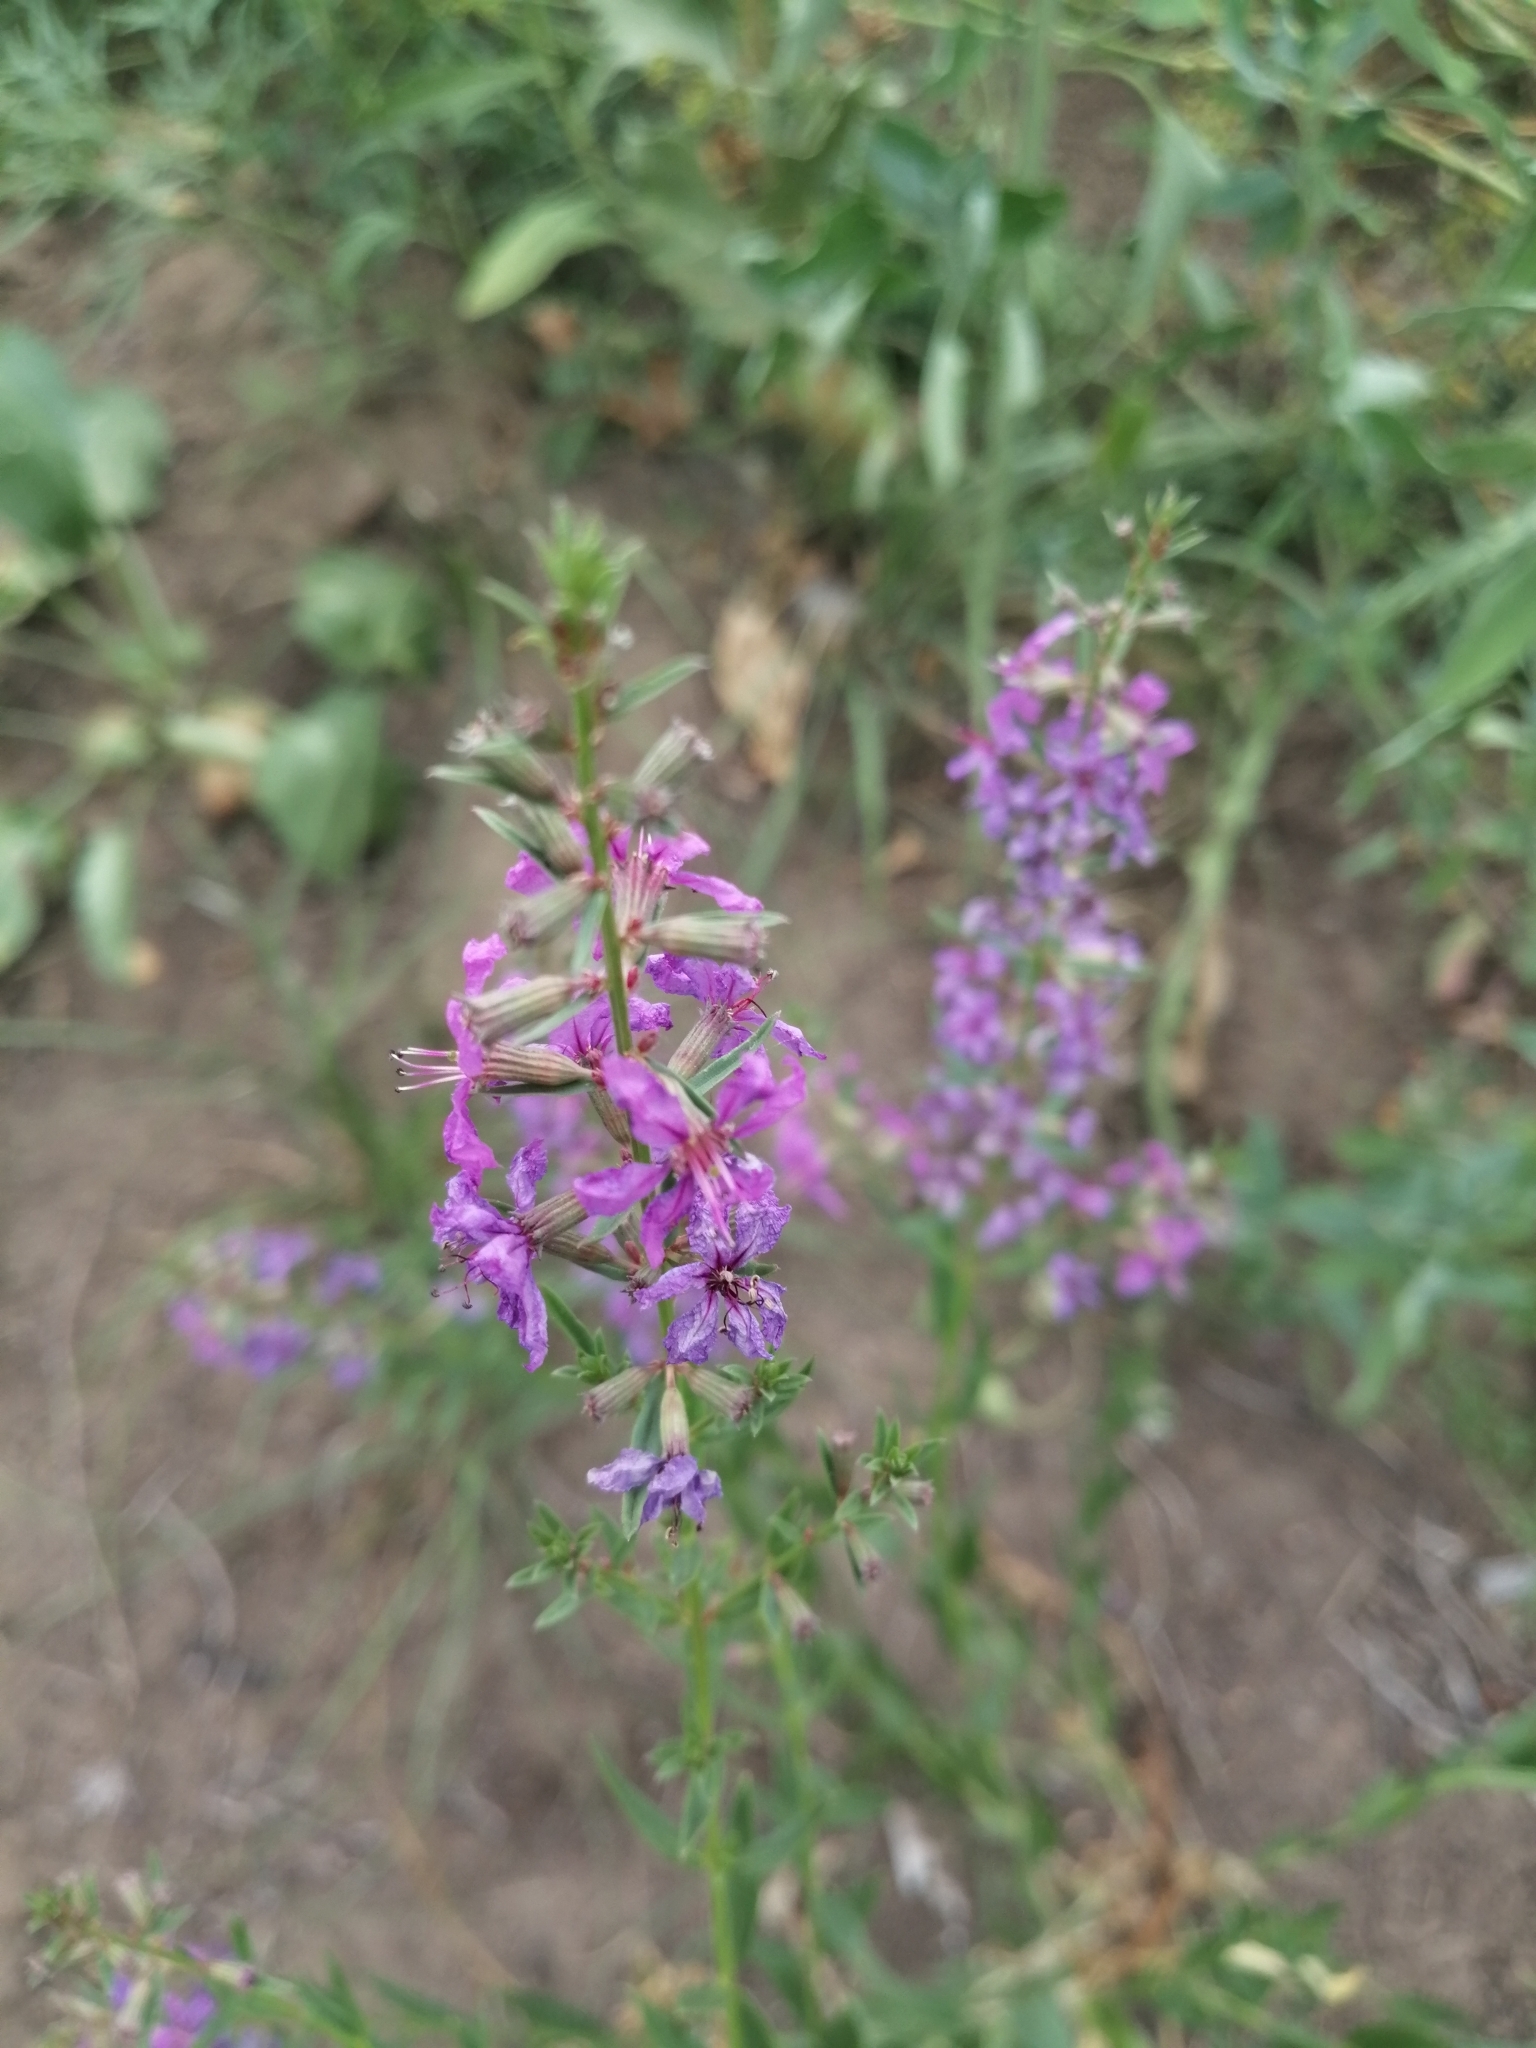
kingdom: Plantae
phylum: Tracheophyta
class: Magnoliopsida
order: Myrtales
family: Lythraceae
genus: Lythrum
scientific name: Lythrum virgatum
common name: European wand loosestrife
